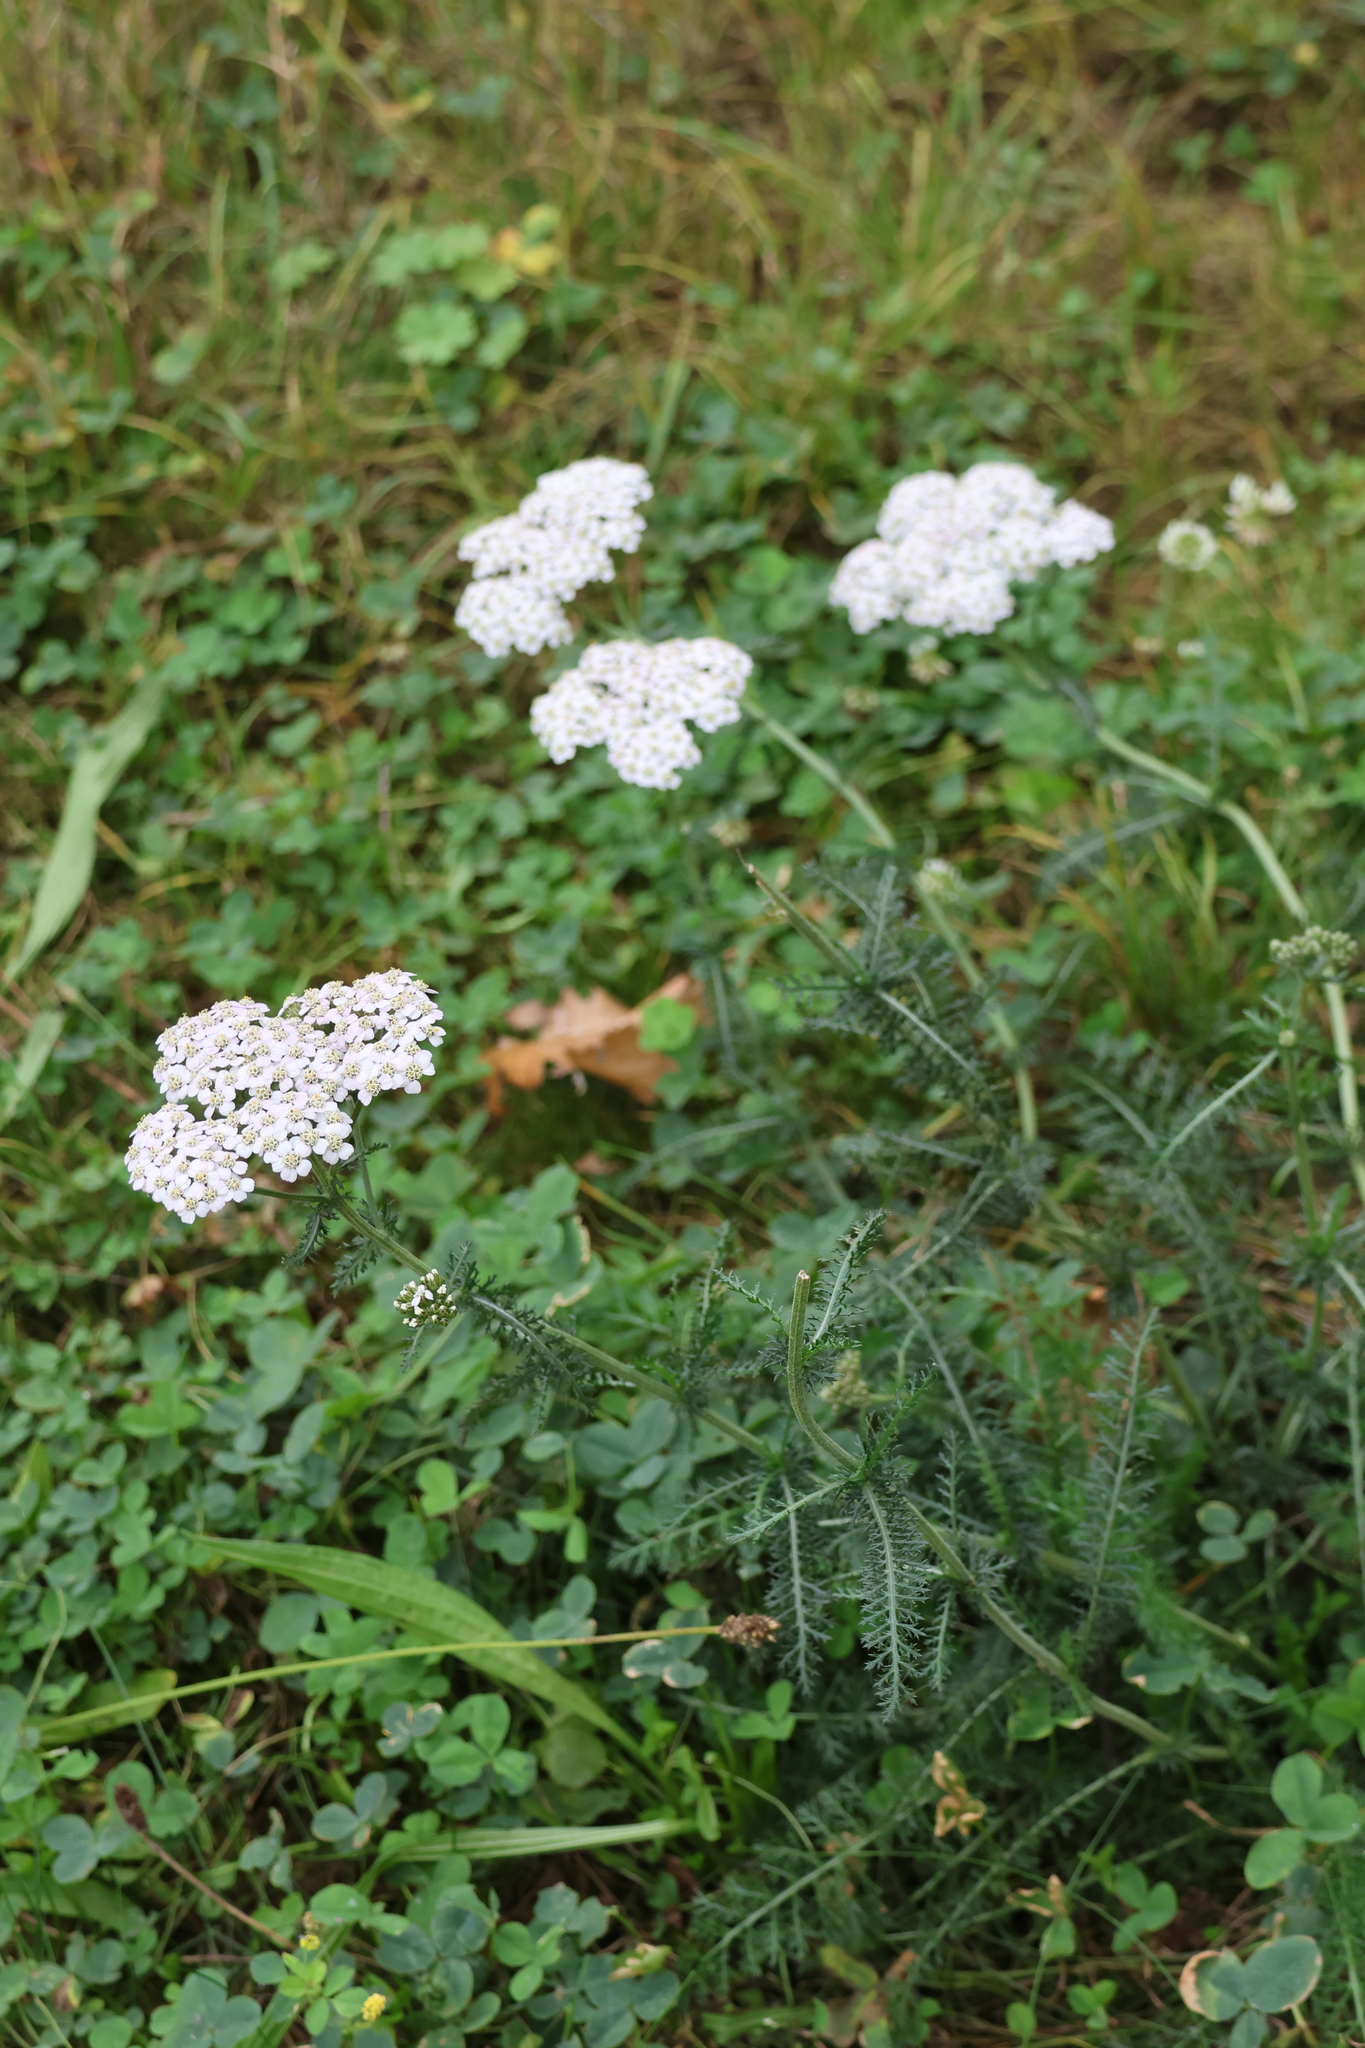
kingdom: Plantae
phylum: Tracheophyta
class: Magnoliopsida
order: Asterales
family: Asteraceae
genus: Achillea
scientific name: Achillea millefolium
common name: Yarrow
